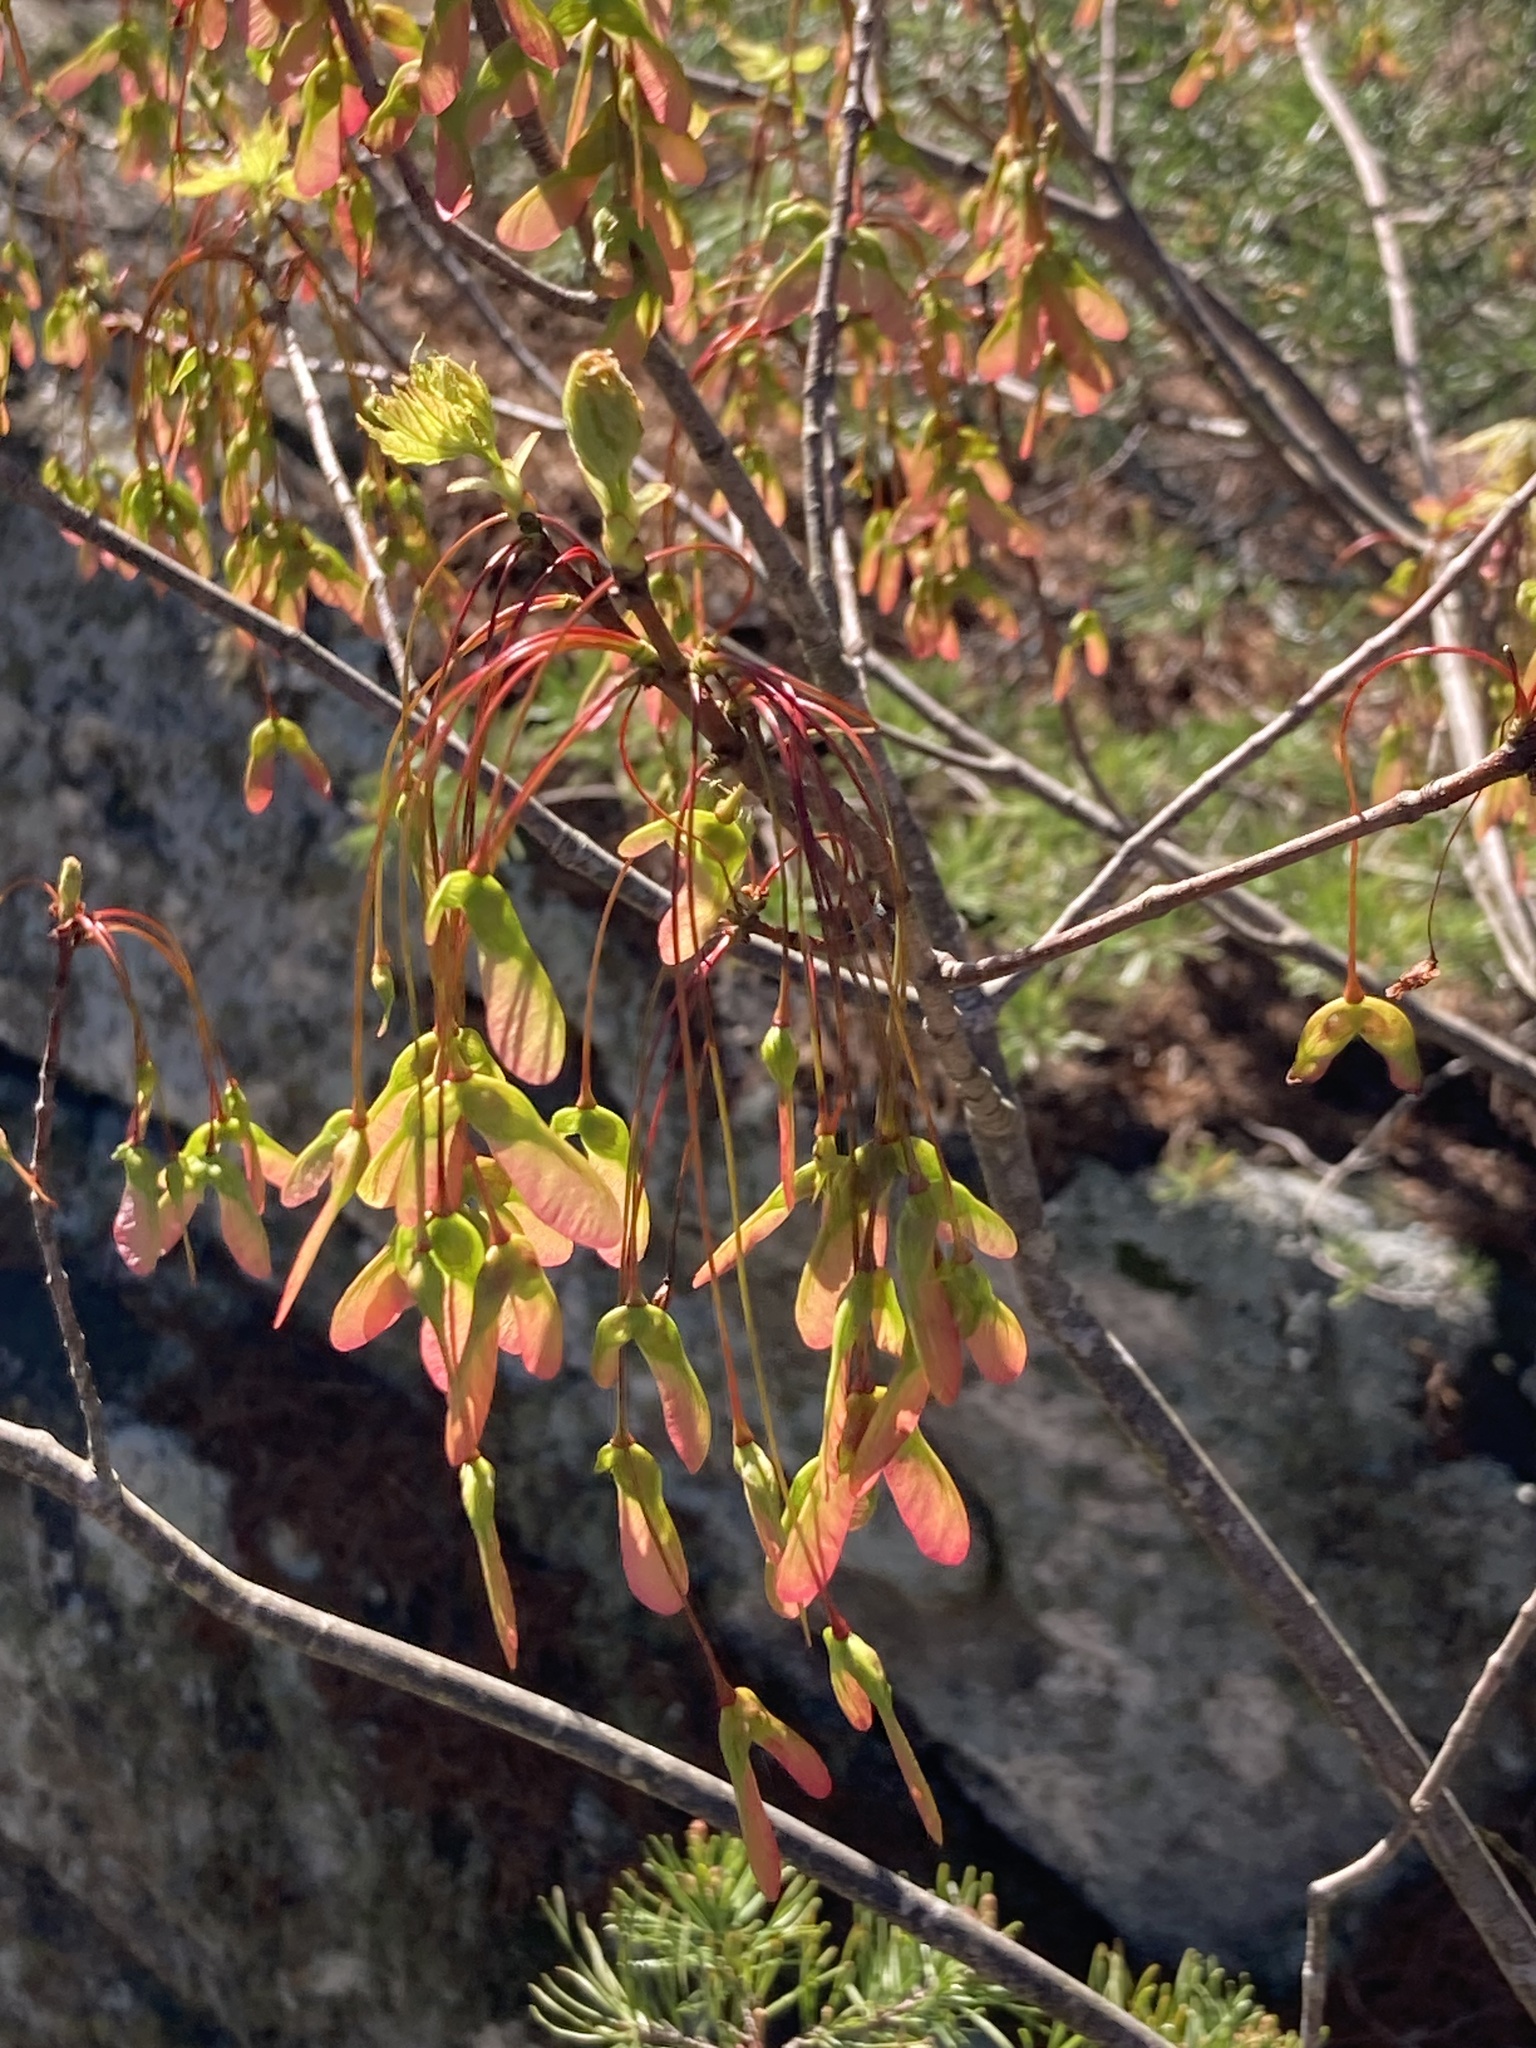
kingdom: Plantae
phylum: Tracheophyta
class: Magnoliopsida
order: Sapindales
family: Sapindaceae
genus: Acer
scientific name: Acer rubrum
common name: Red maple
